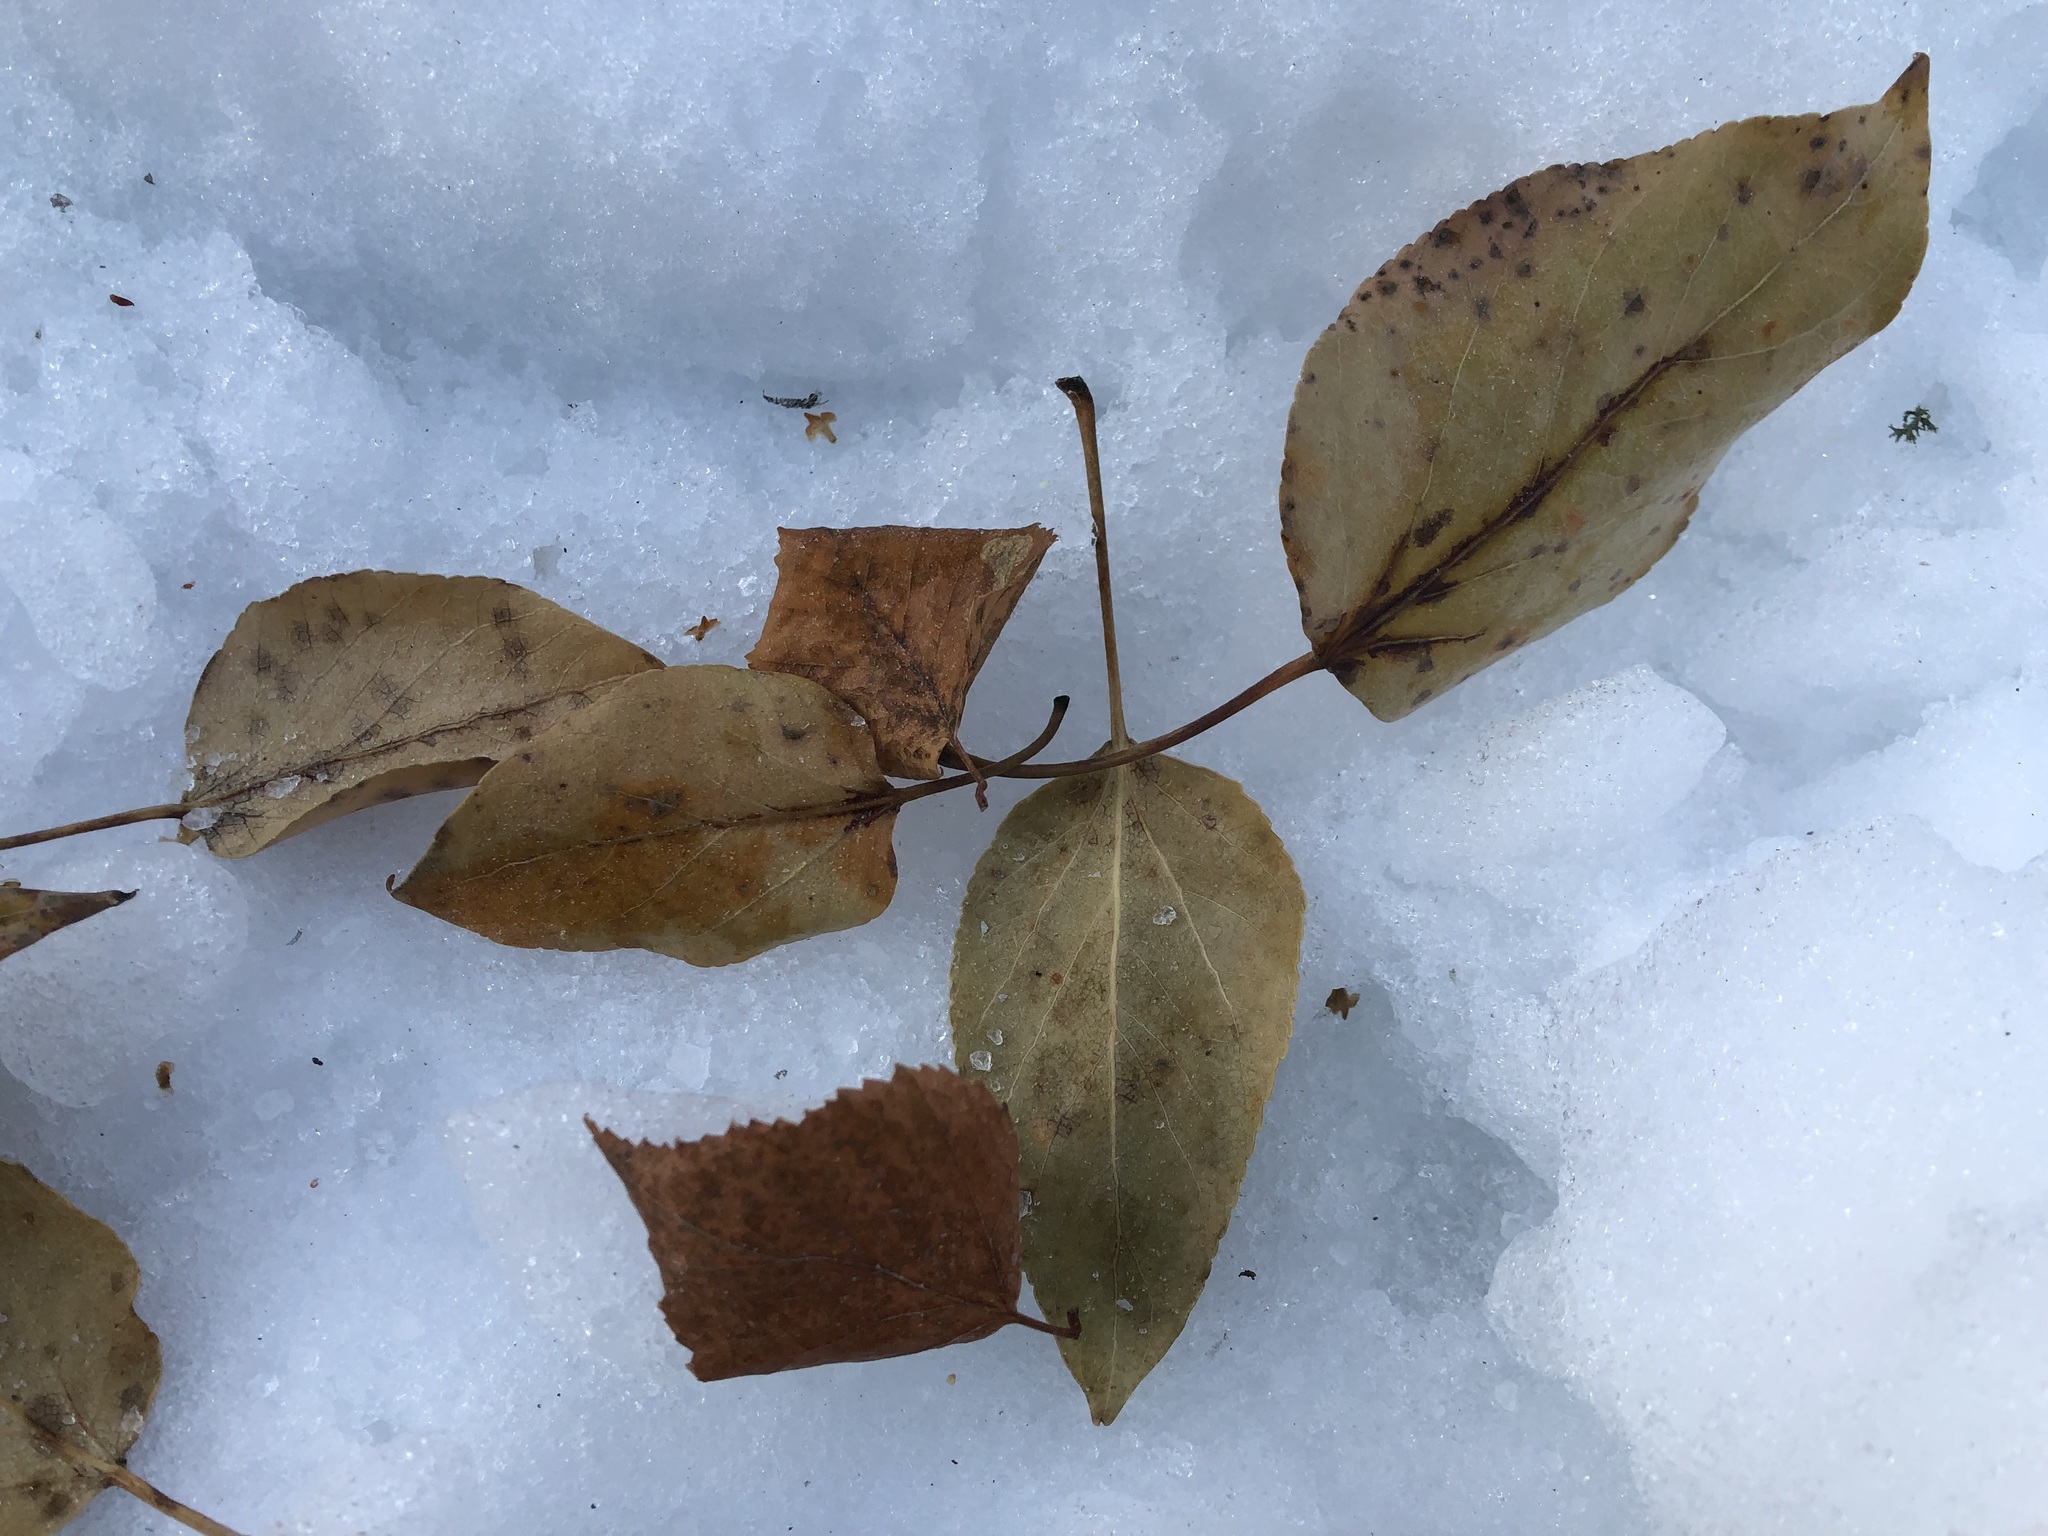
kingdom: Plantae
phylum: Tracheophyta
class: Magnoliopsida
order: Malpighiales
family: Salicaceae
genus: Populus
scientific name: Populus balsamifera
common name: Balsam poplar
